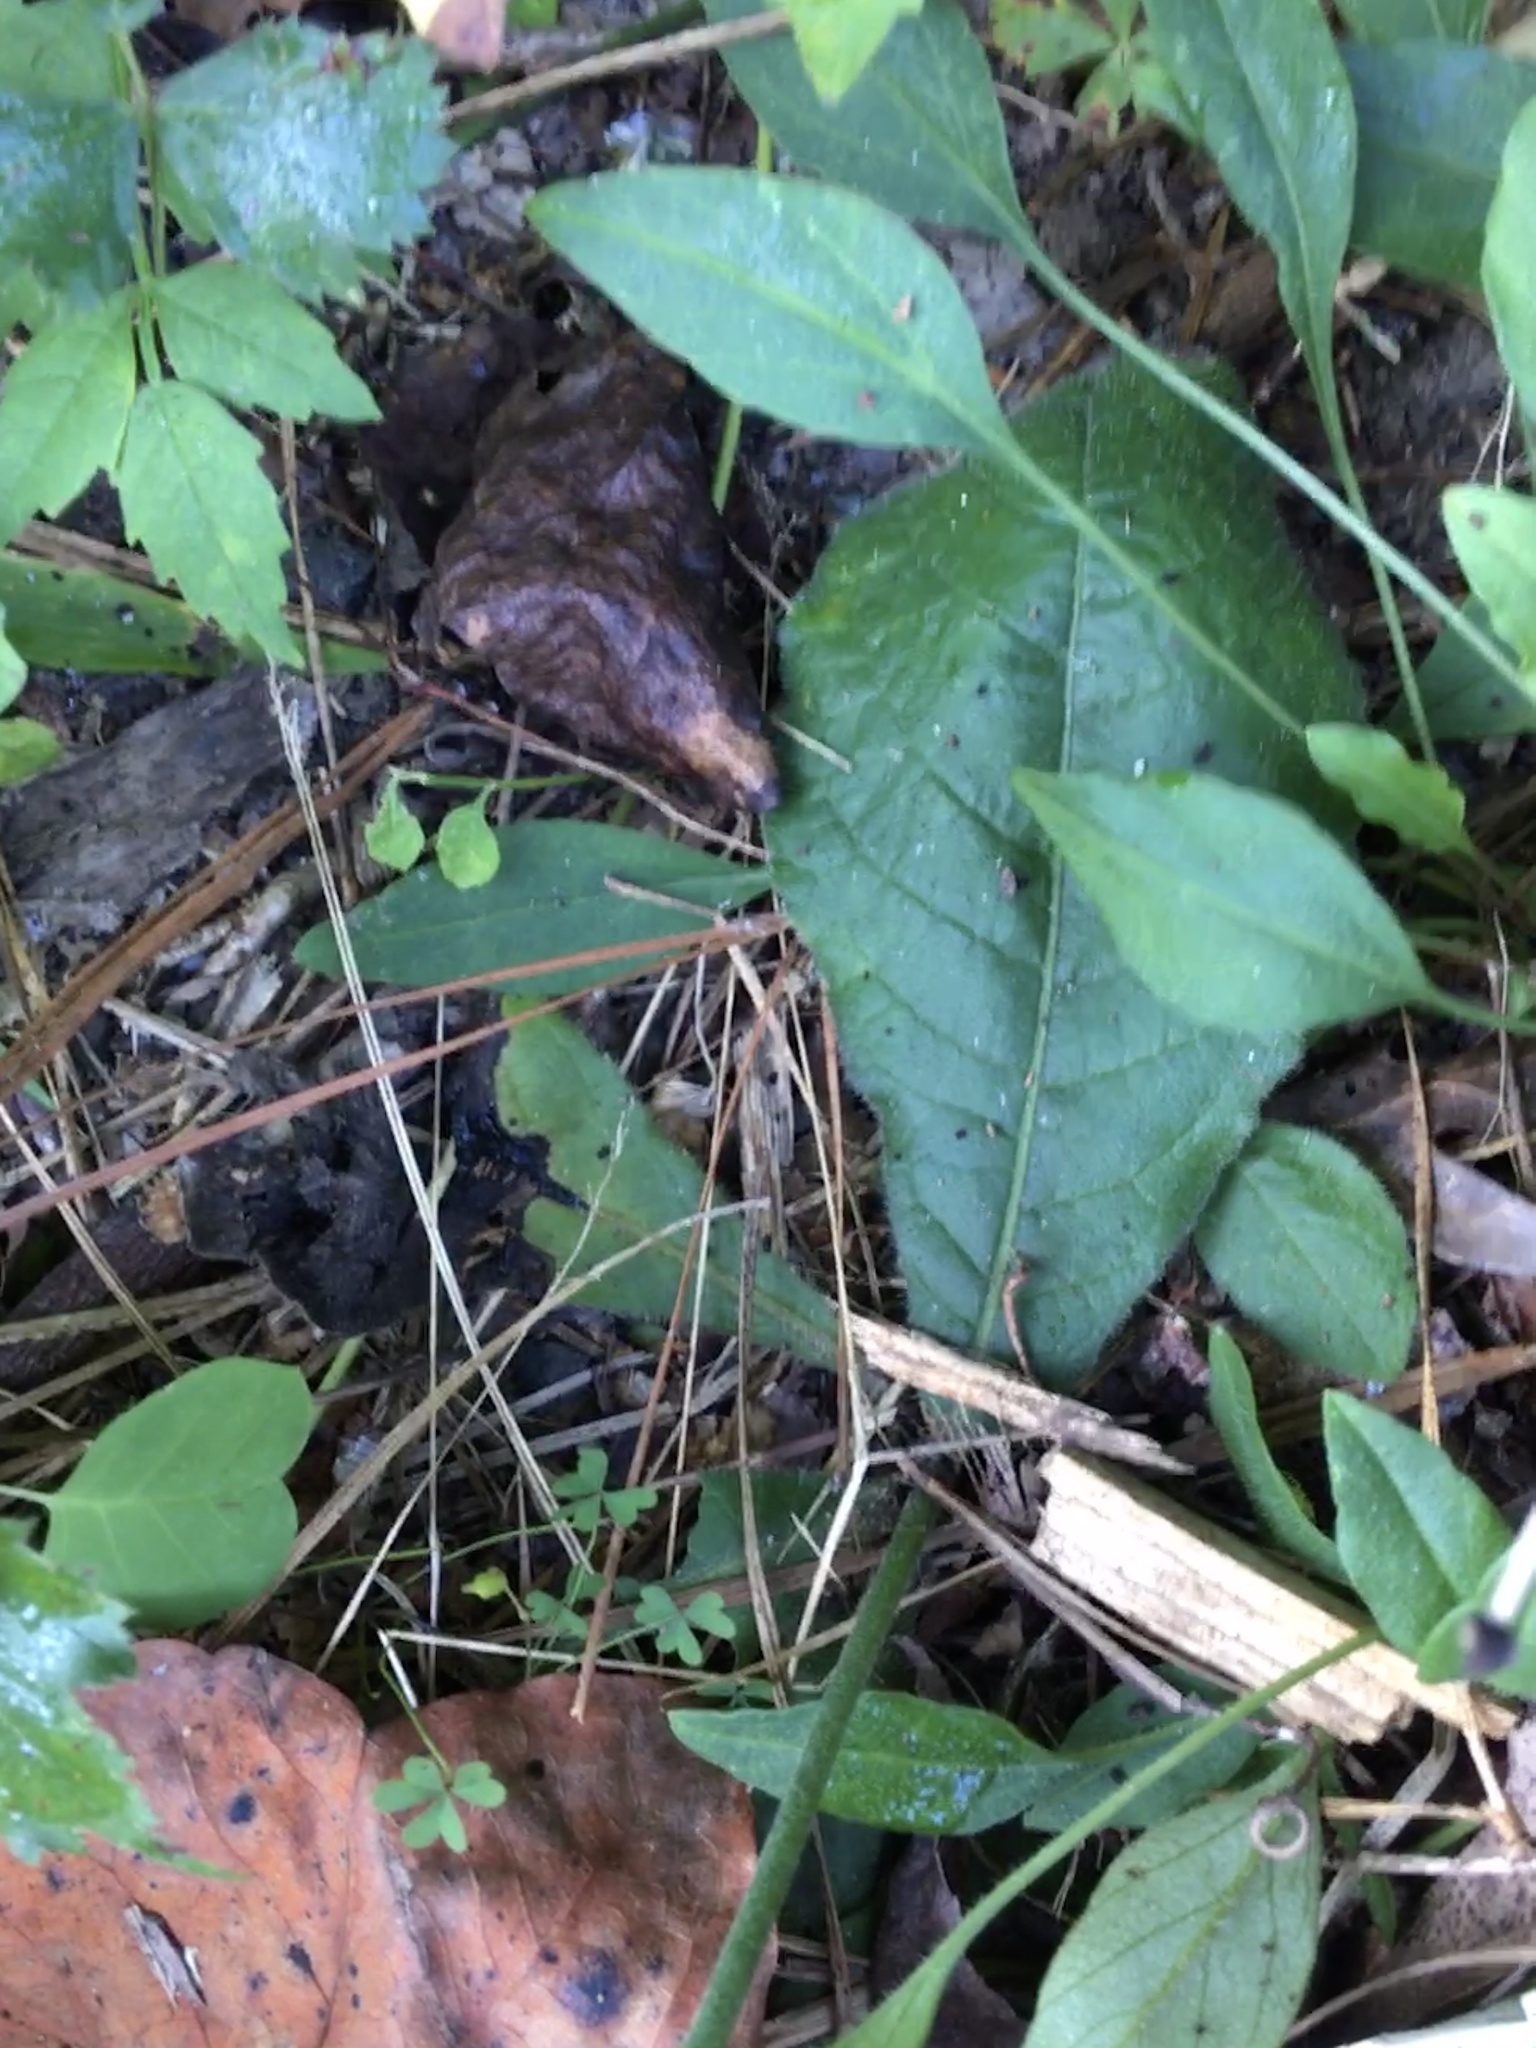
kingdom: Plantae
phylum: Tracheophyta
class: Magnoliopsida
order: Asterales
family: Asteraceae
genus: Elephantopus
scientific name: Elephantopus tomentosus
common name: Tobacco-weed
